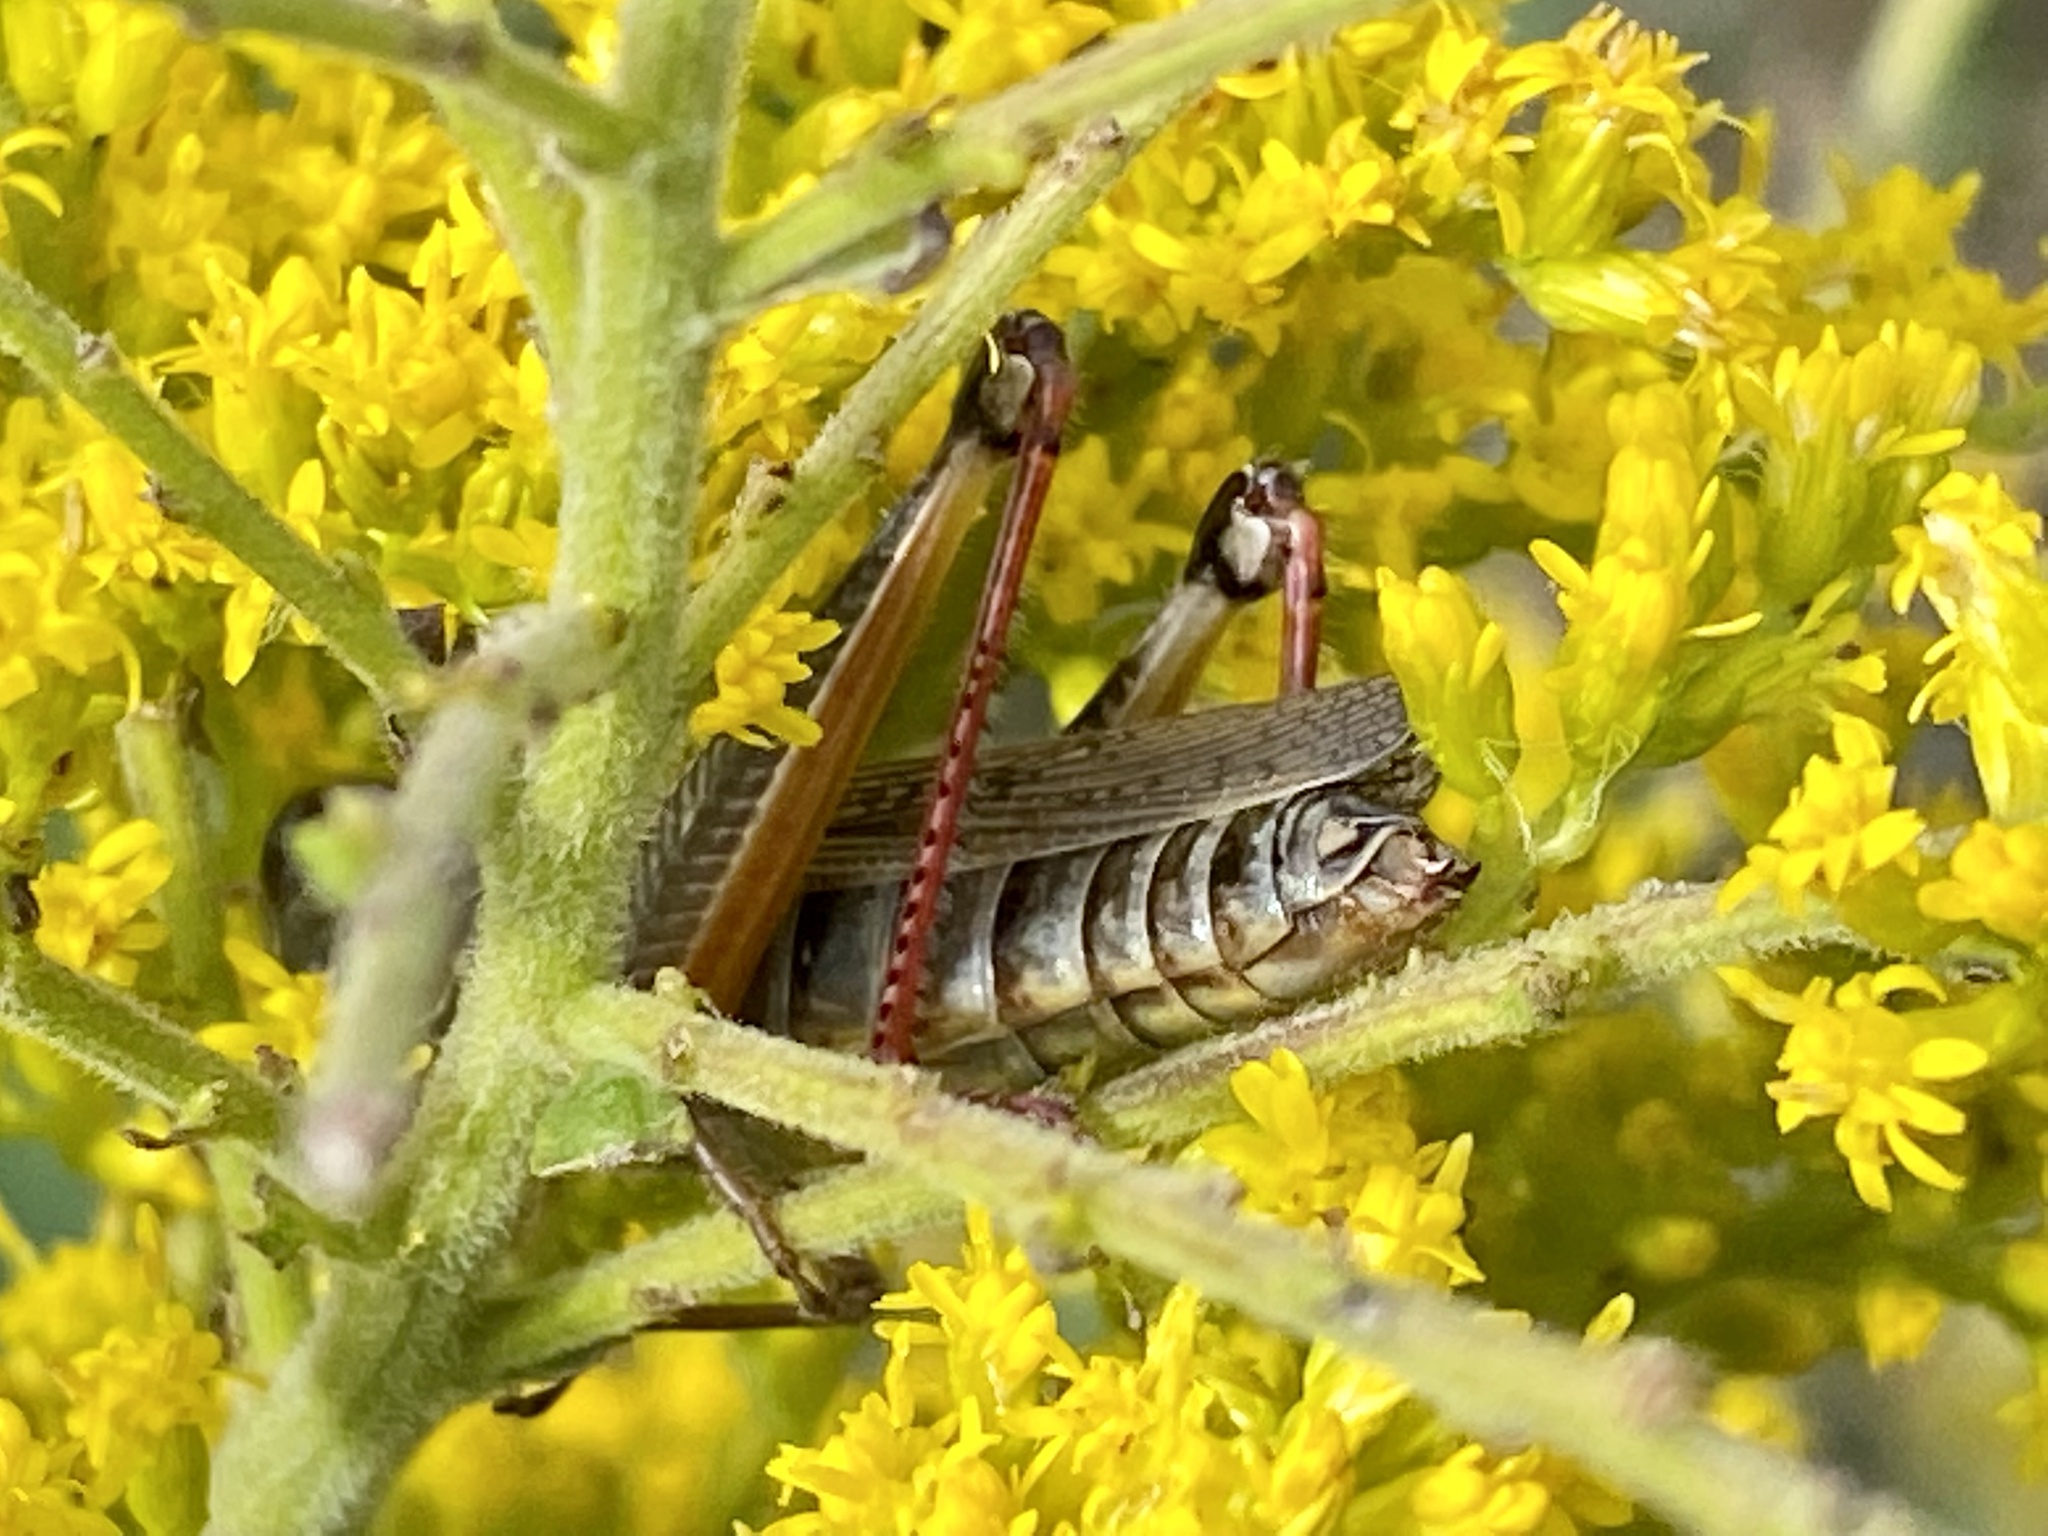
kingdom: Animalia
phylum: Arthropoda
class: Insecta
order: Orthoptera
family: Acrididae
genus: Melanoplus
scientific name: Melanoplus femurrubrum
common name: Red-legged grasshopper
